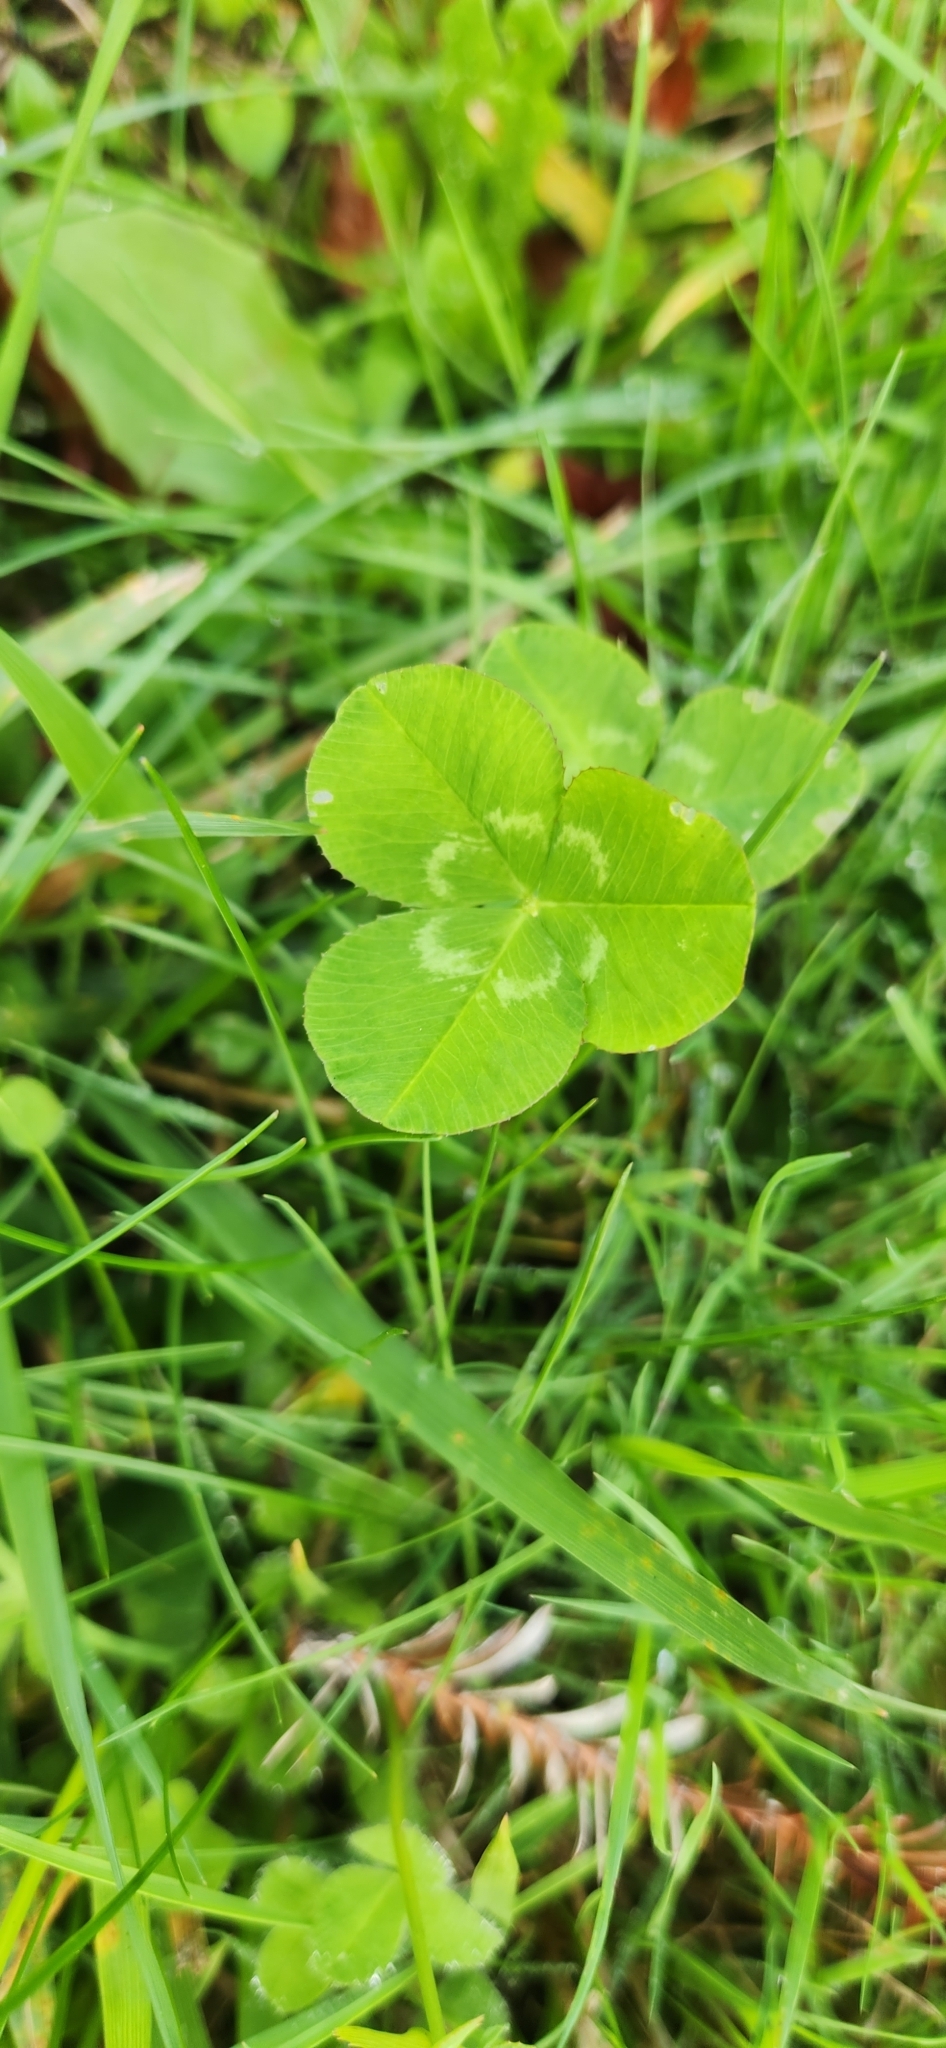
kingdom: Plantae
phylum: Tracheophyta
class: Magnoliopsida
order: Fabales
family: Fabaceae
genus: Trifolium
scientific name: Trifolium repens
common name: White clover
